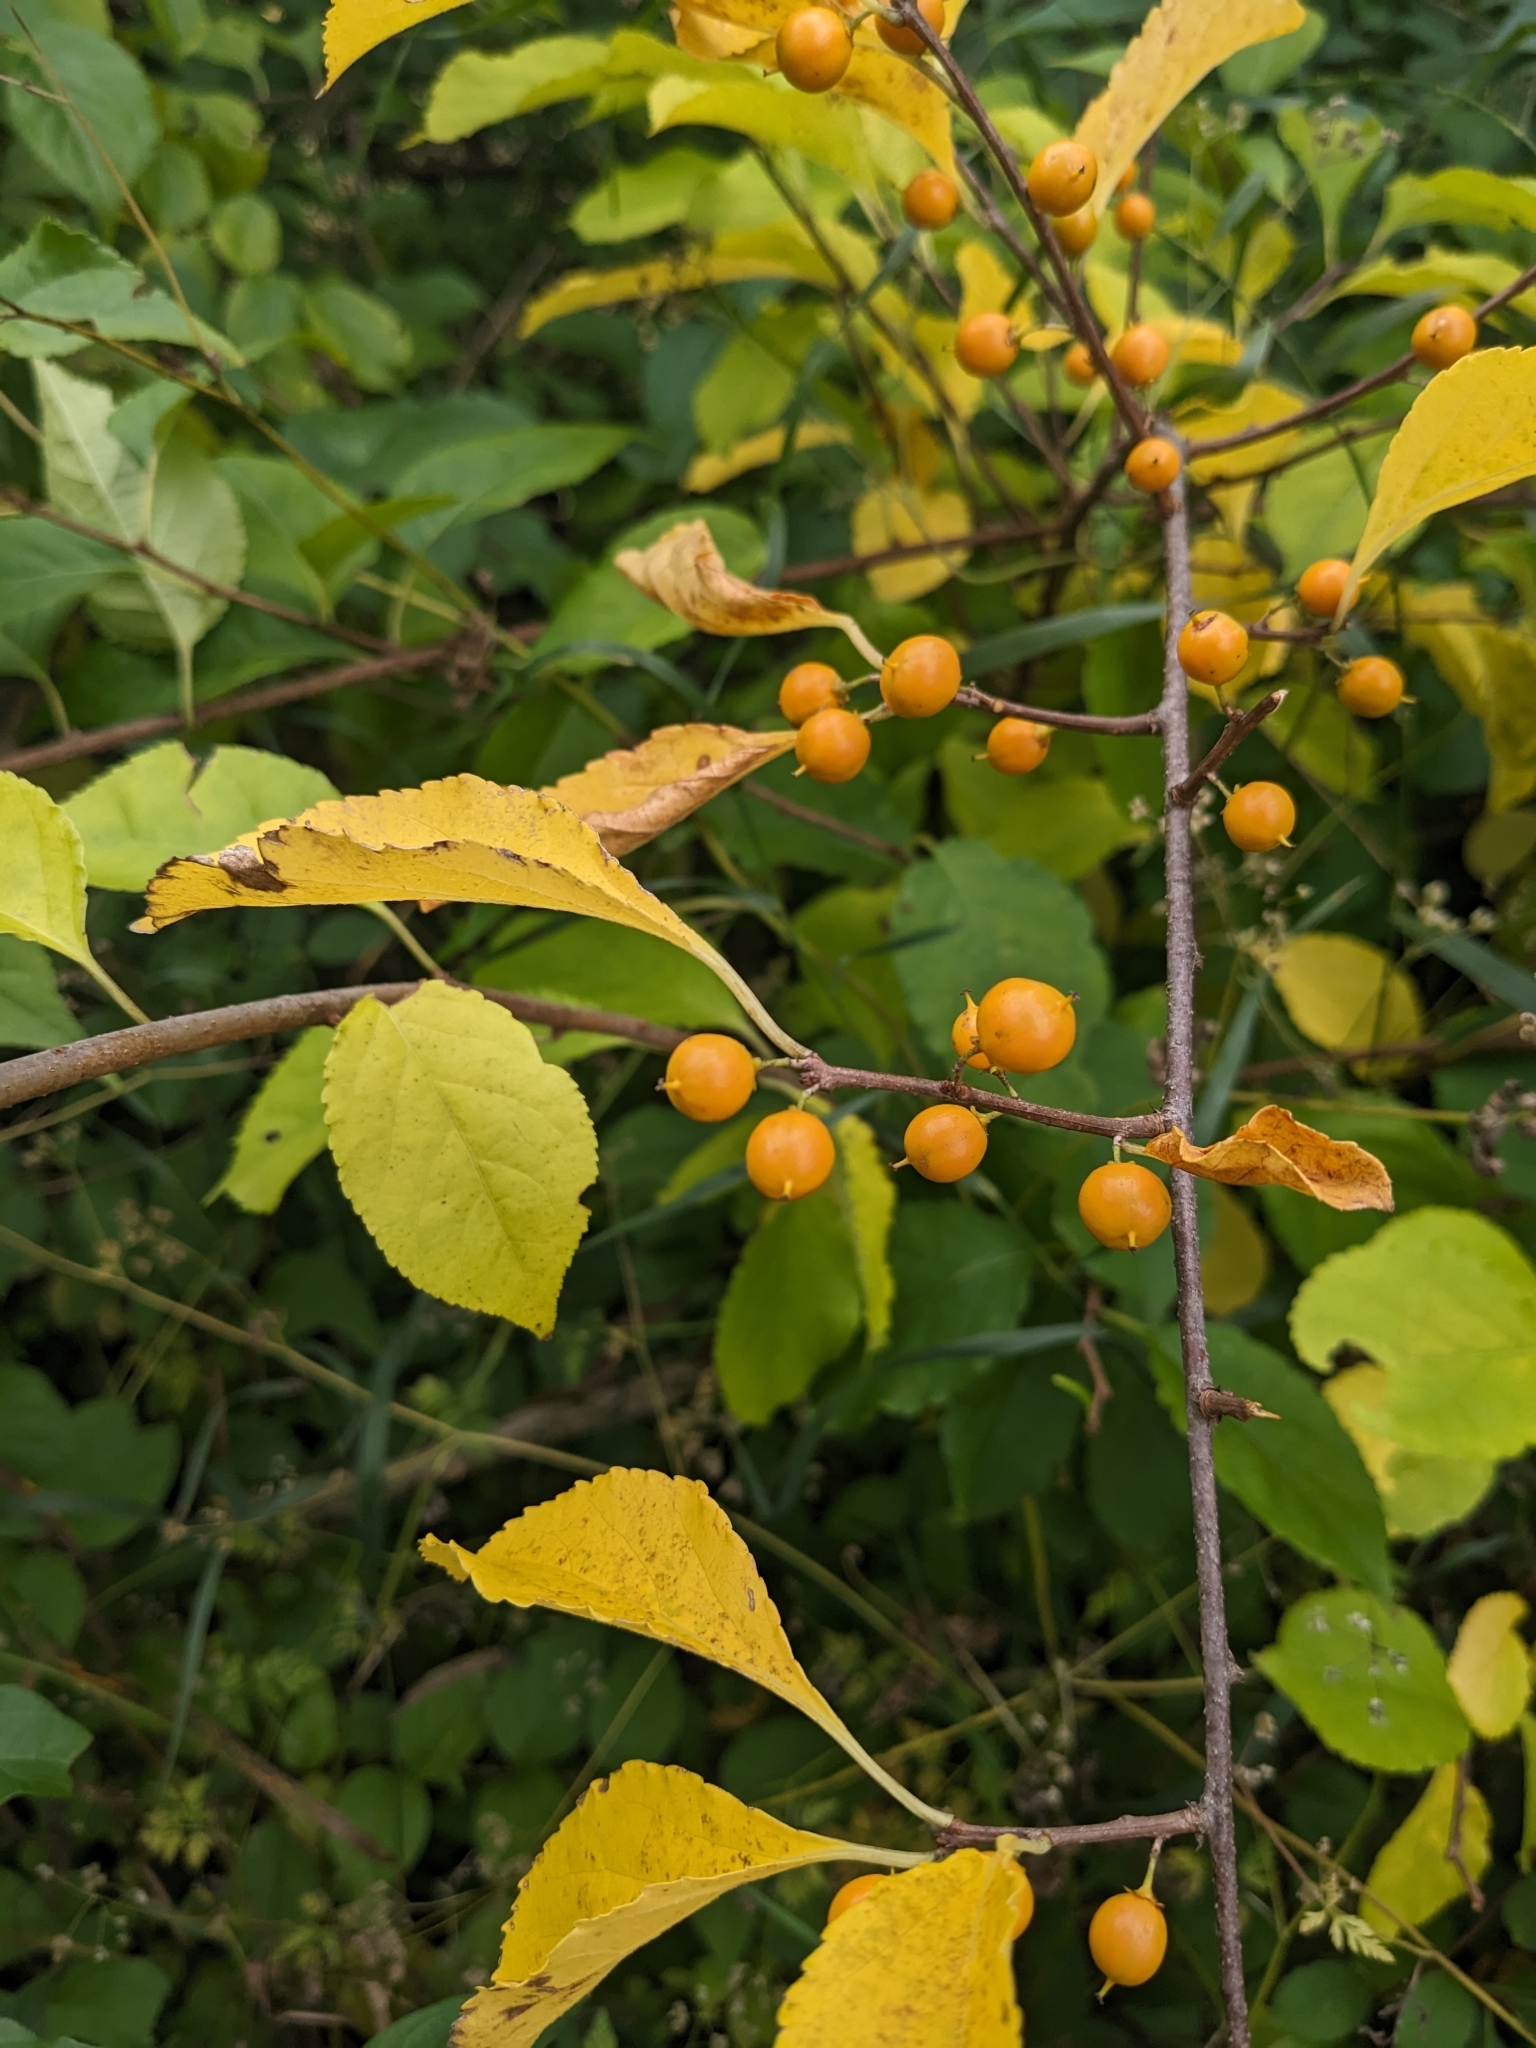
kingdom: Plantae
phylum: Tracheophyta
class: Magnoliopsida
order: Celastrales
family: Celastraceae
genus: Celastrus
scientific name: Celastrus orbiculatus
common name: Oriental bittersweet
